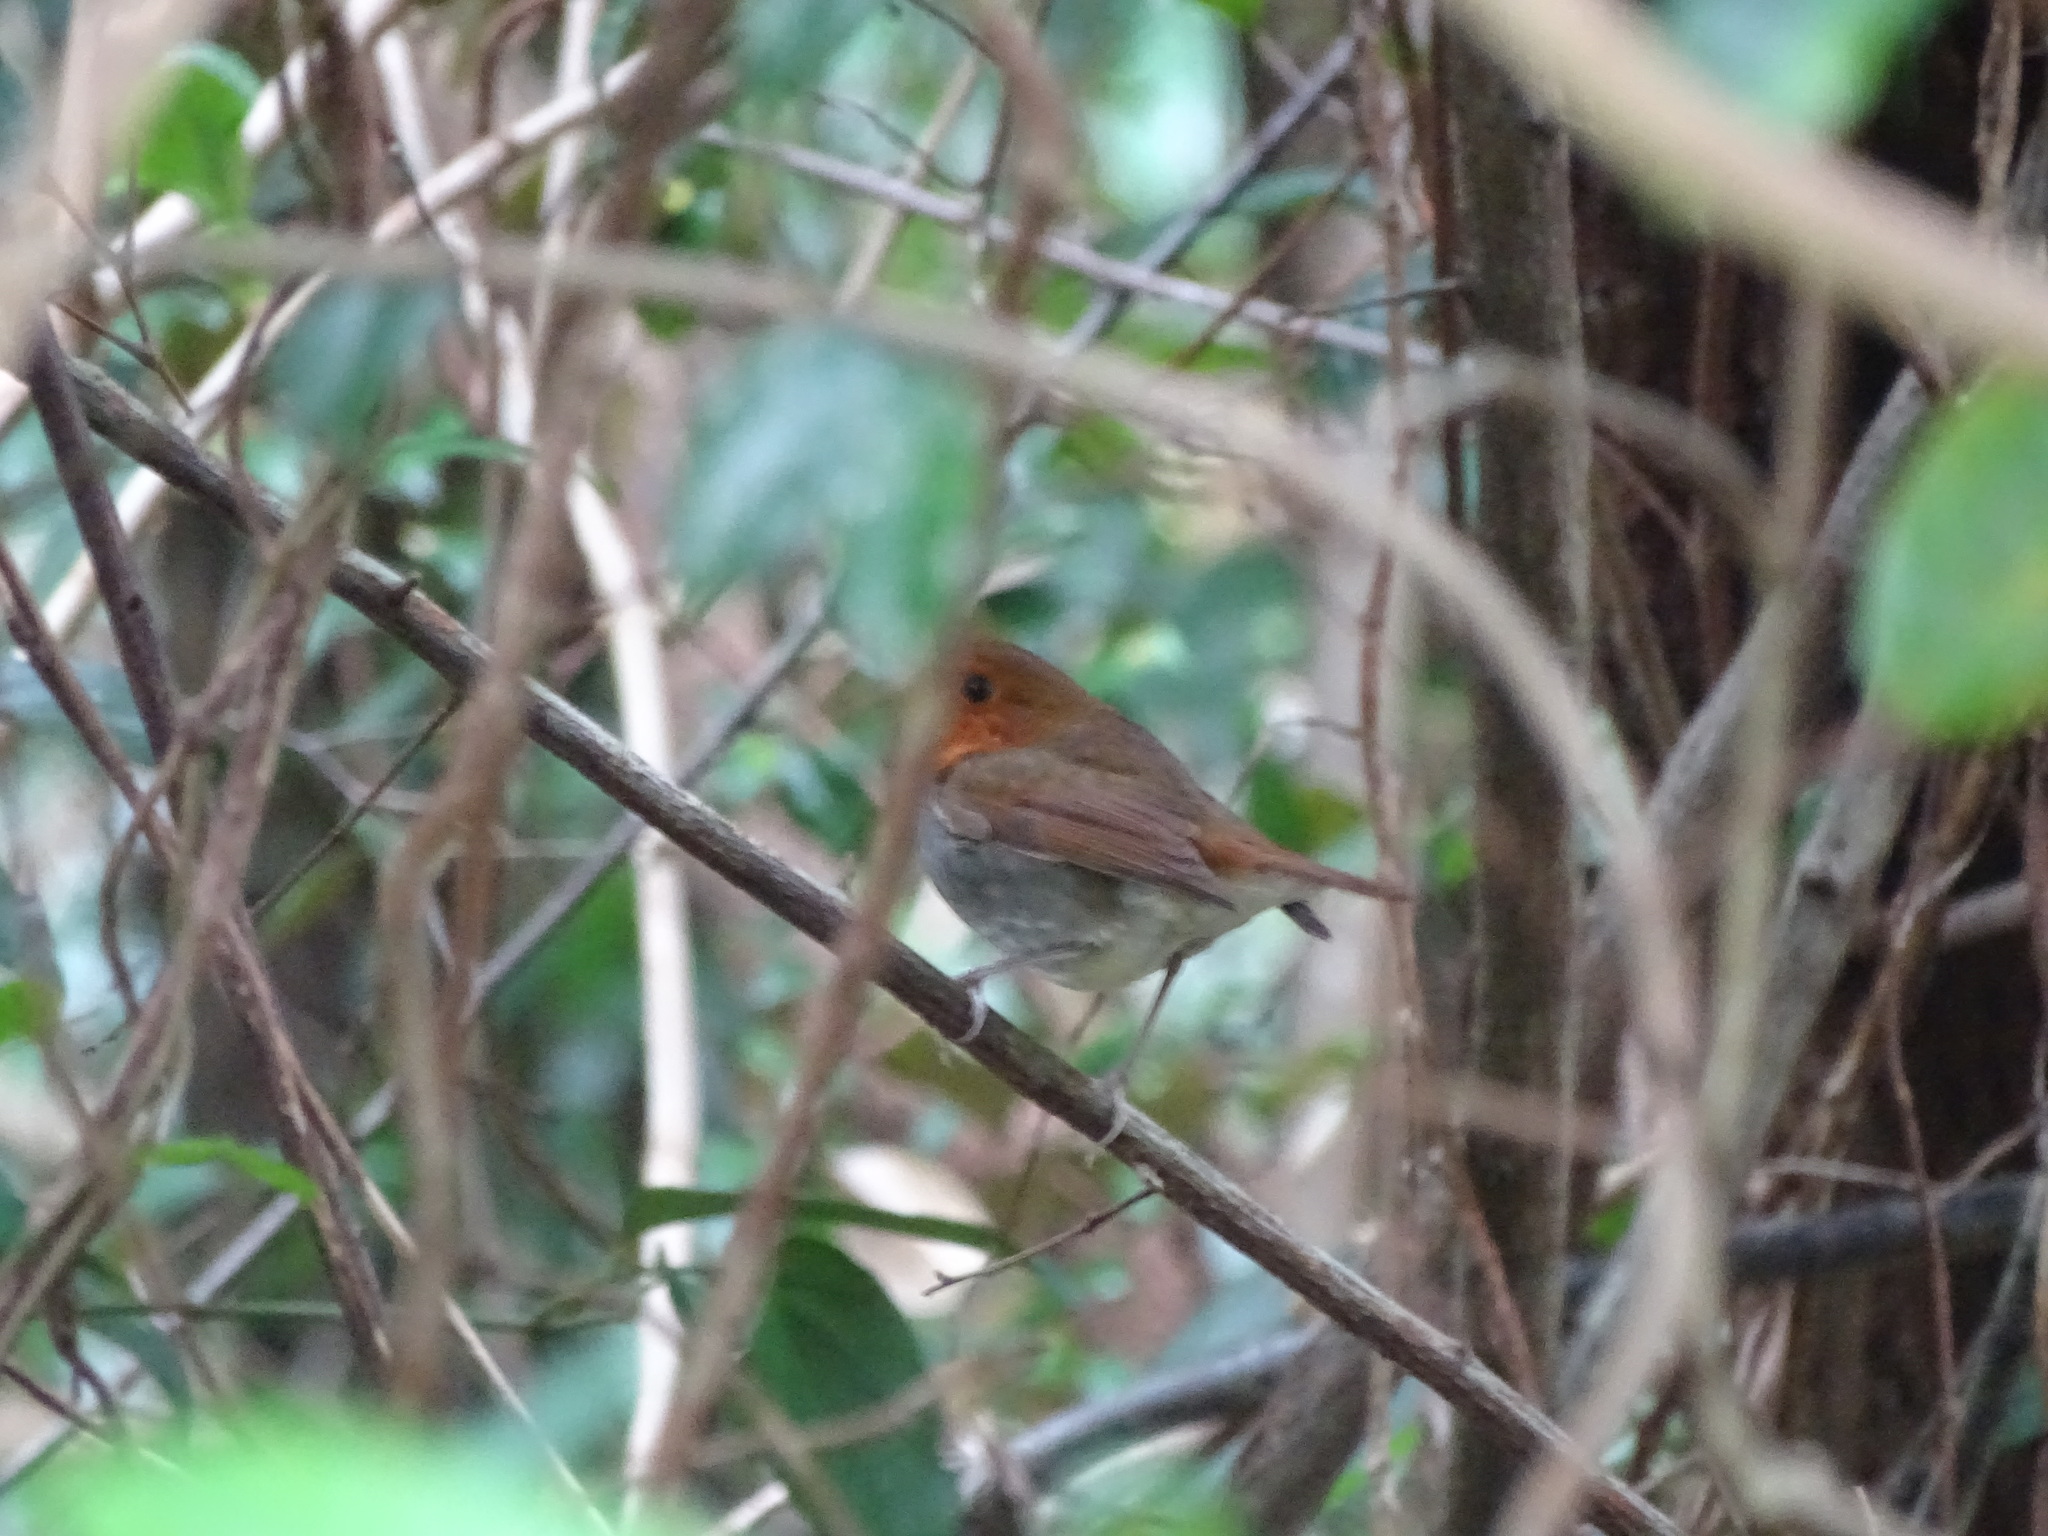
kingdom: Animalia
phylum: Chordata
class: Aves
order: Passeriformes
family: Muscicapidae
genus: Erithacus
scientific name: Erithacus akahige
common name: Japanese robin
